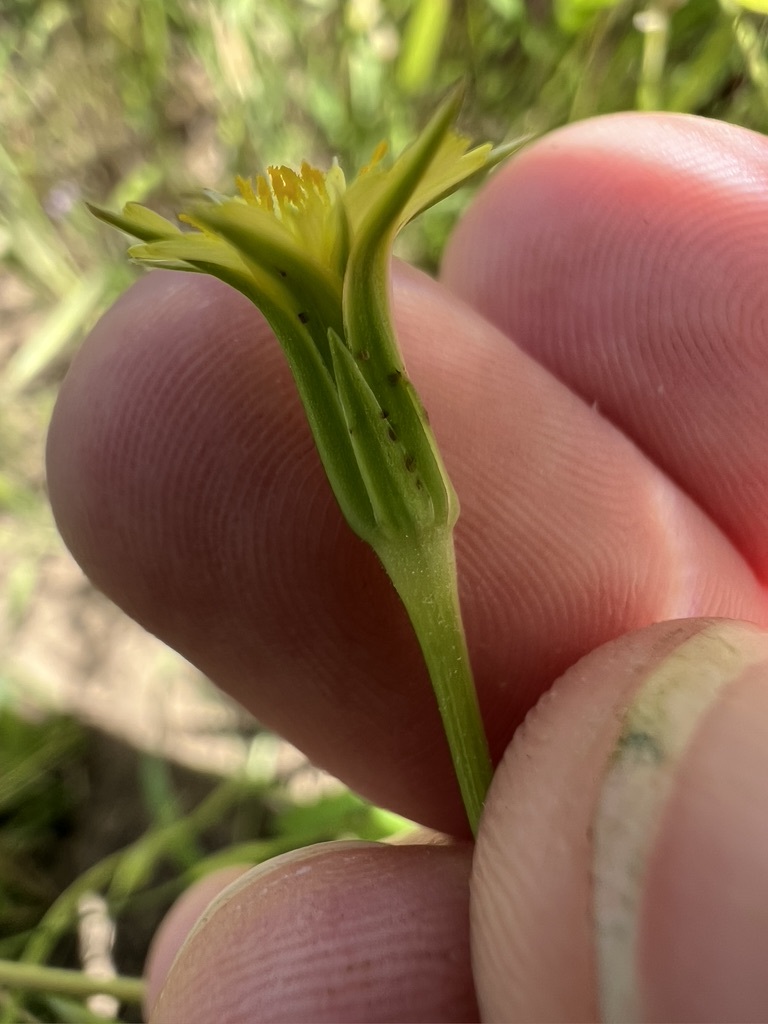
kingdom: Plantae
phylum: Tracheophyta
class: Magnoliopsida
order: Asterales
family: Asteraceae
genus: Microseris
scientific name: Microseris lindleyi
